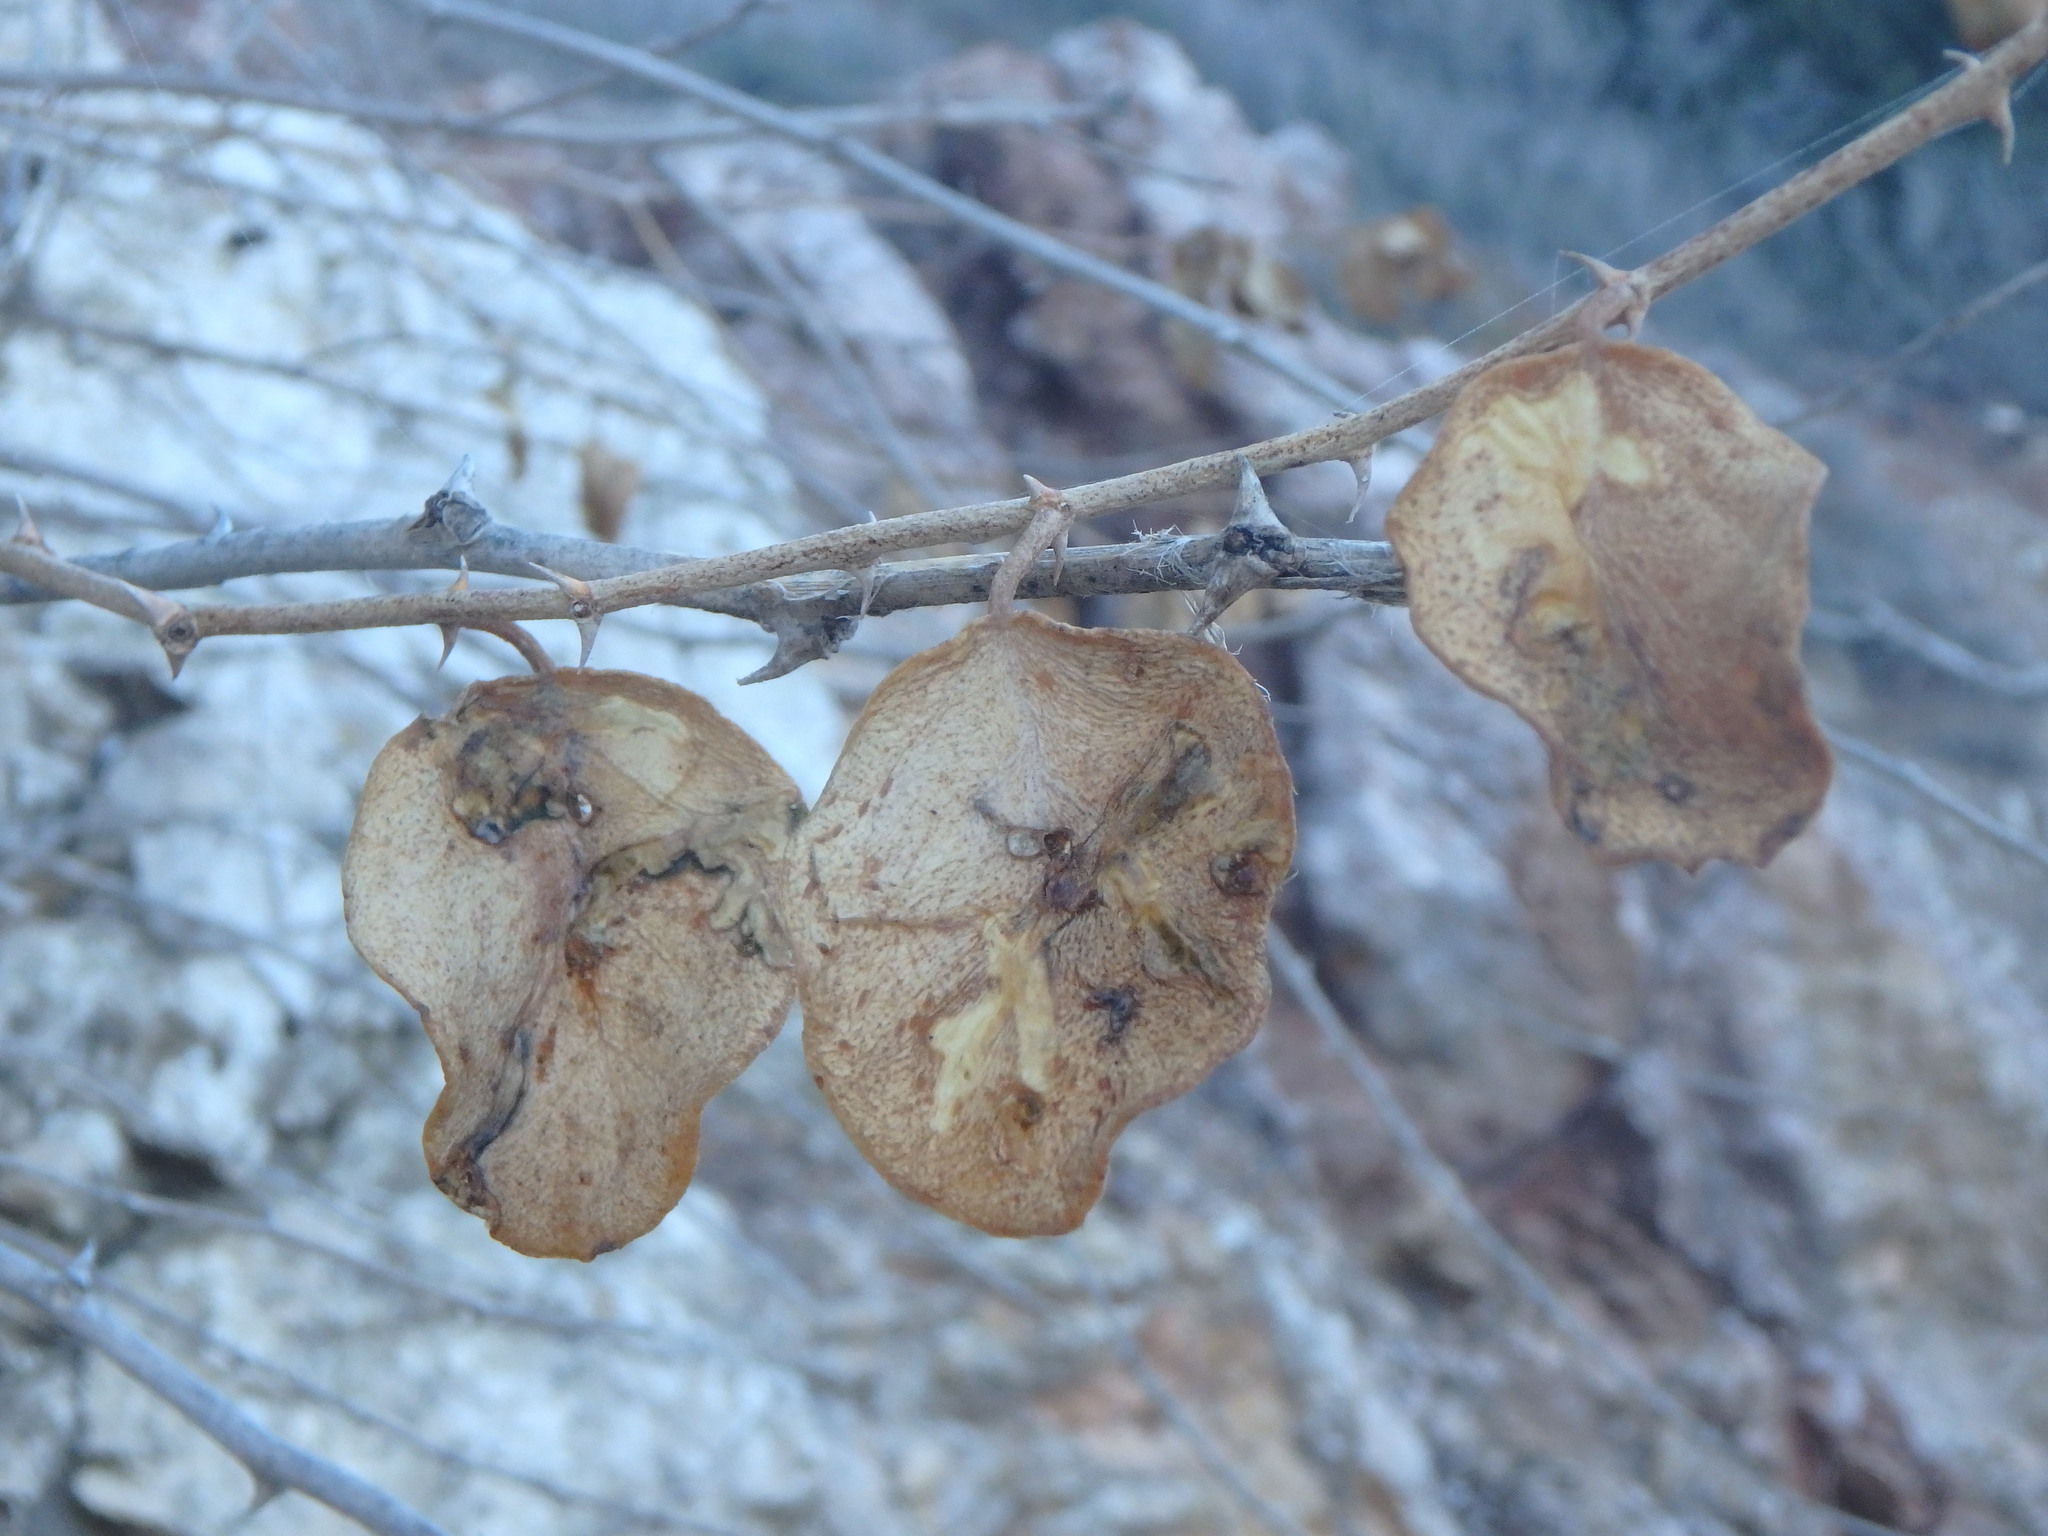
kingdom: Plantae
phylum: Tracheophyta
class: Magnoliopsida
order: Brassicales
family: Capparaceae
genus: Capparis
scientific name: Capparis spinosa
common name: Caper
